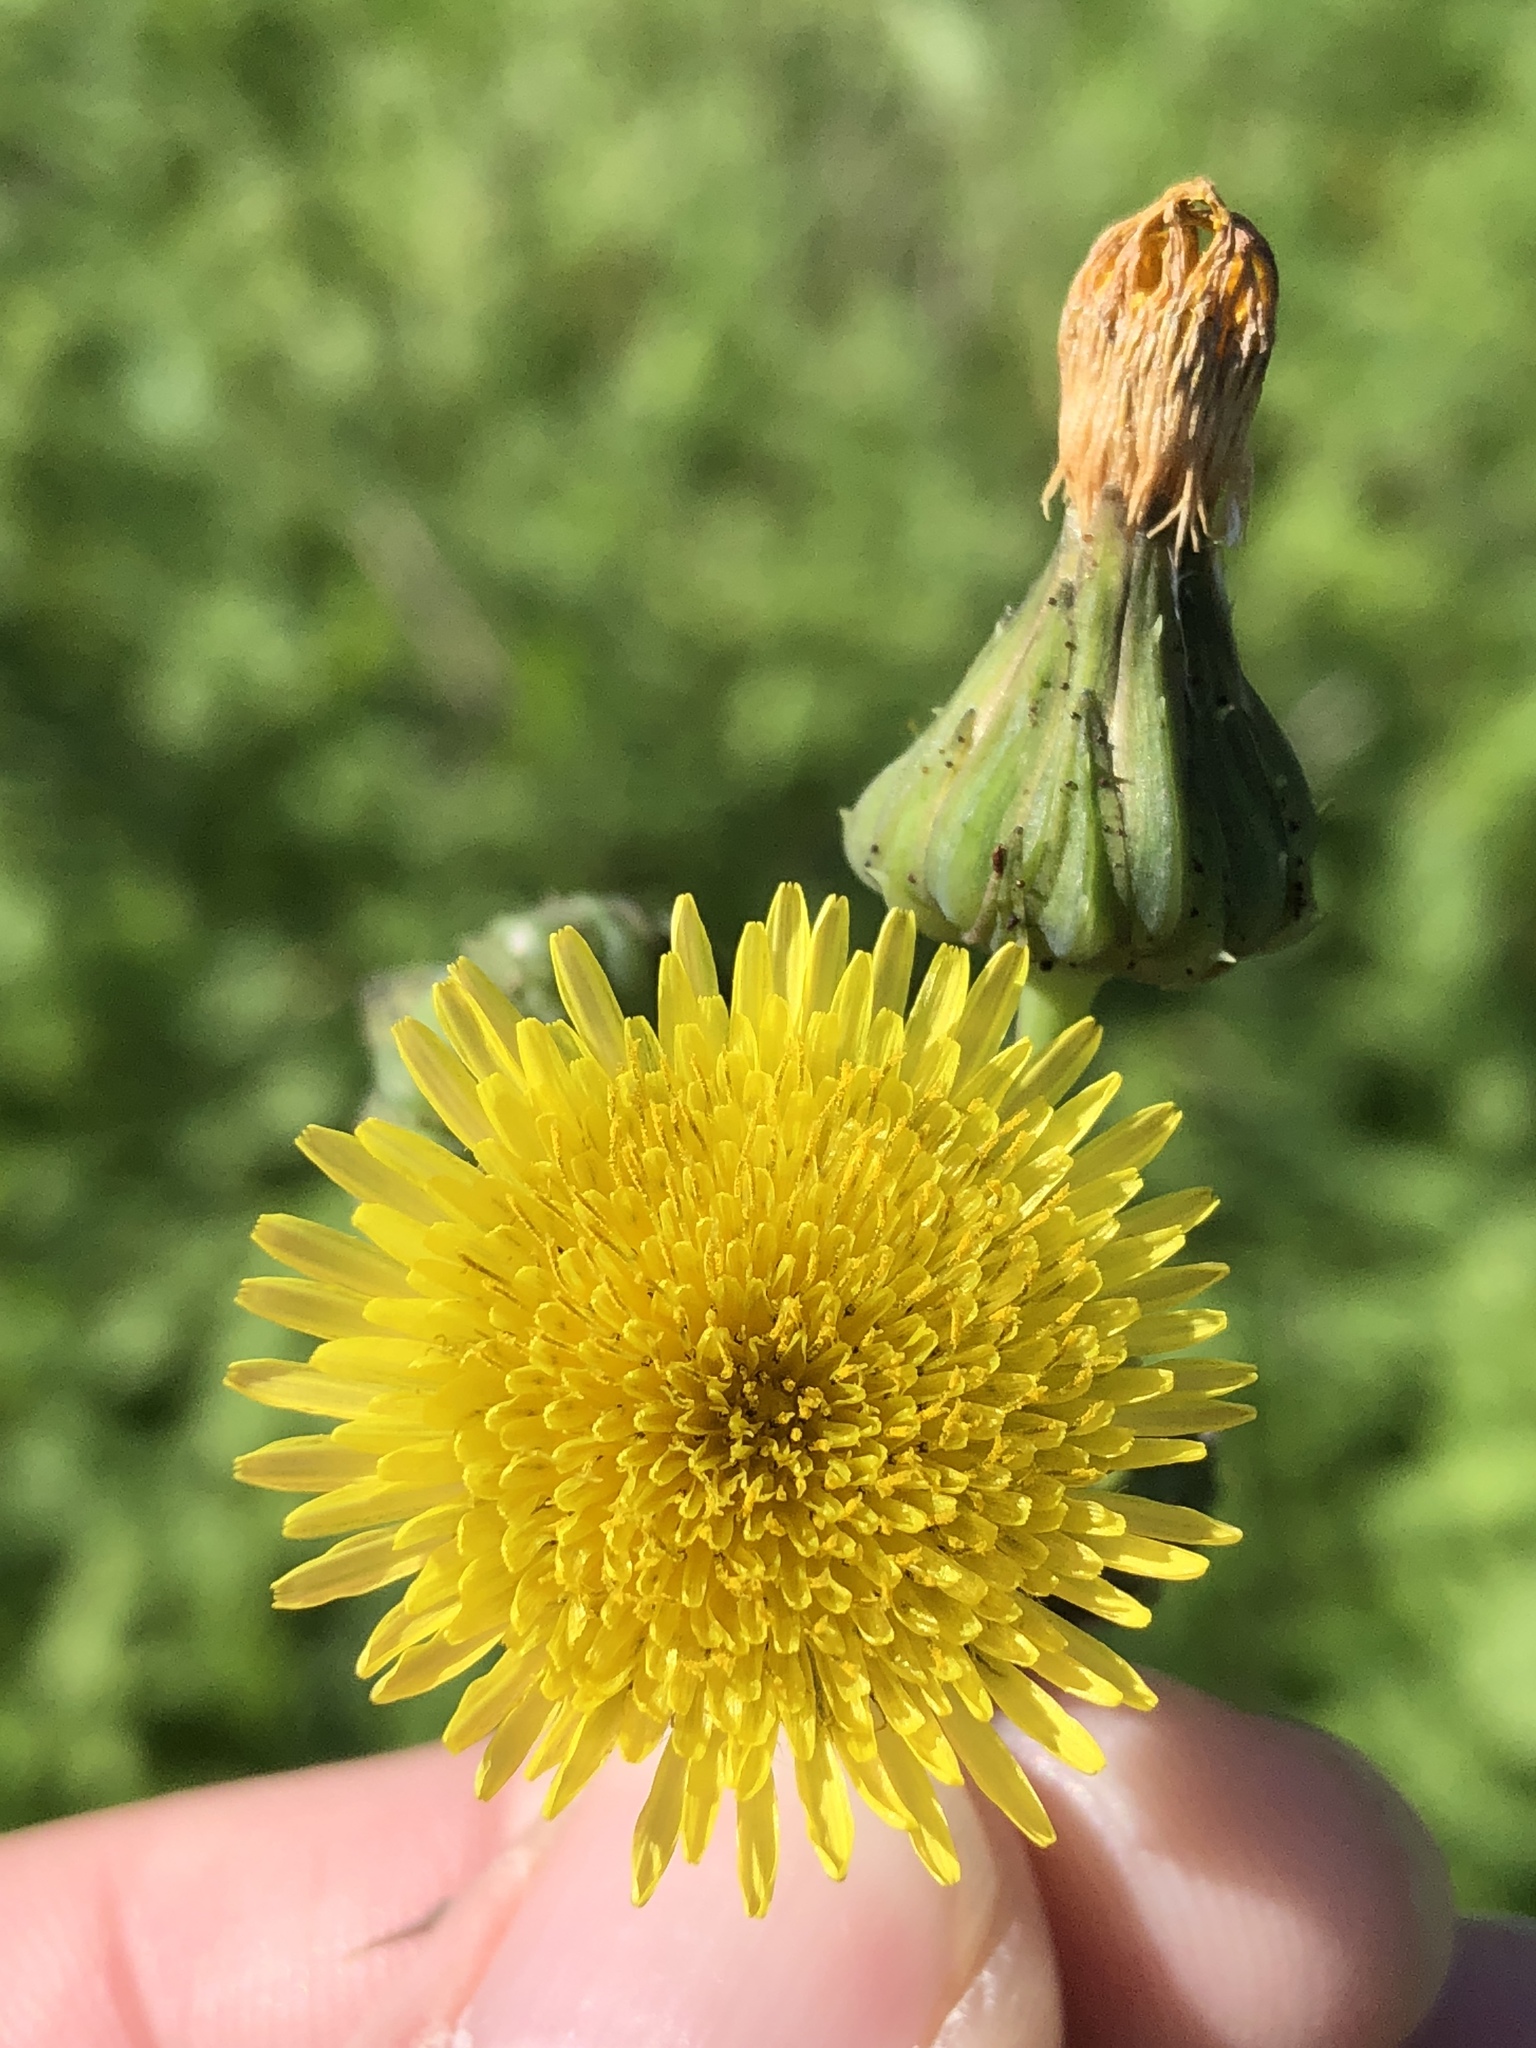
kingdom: Plantae
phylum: Tracheophyta
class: Magnoliopsida
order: Asterales
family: Asteraceae
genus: Sonchus
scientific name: Sonchus asper
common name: Prickly sow-thistle
